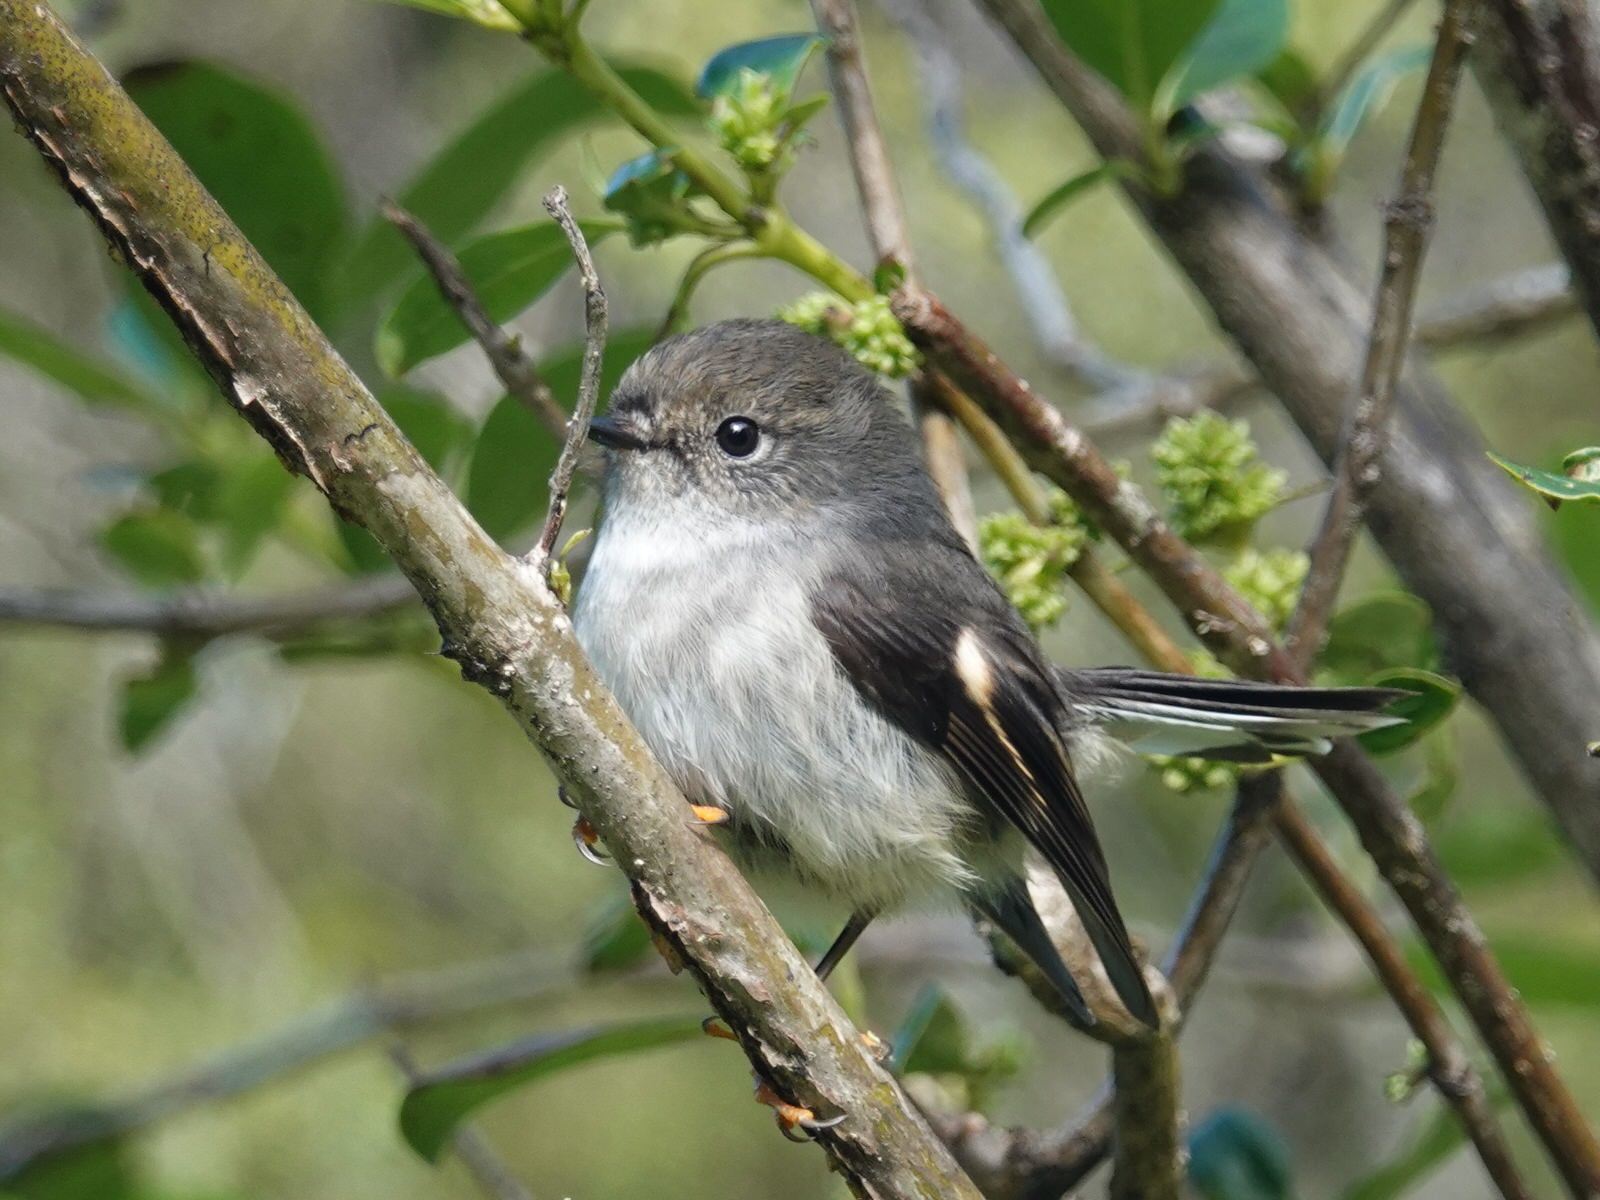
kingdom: Animalia
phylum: Chordata
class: Aves
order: Passeriformes
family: Petroicidae
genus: Petroica
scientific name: Petroica macrocephala
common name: Tomtit
